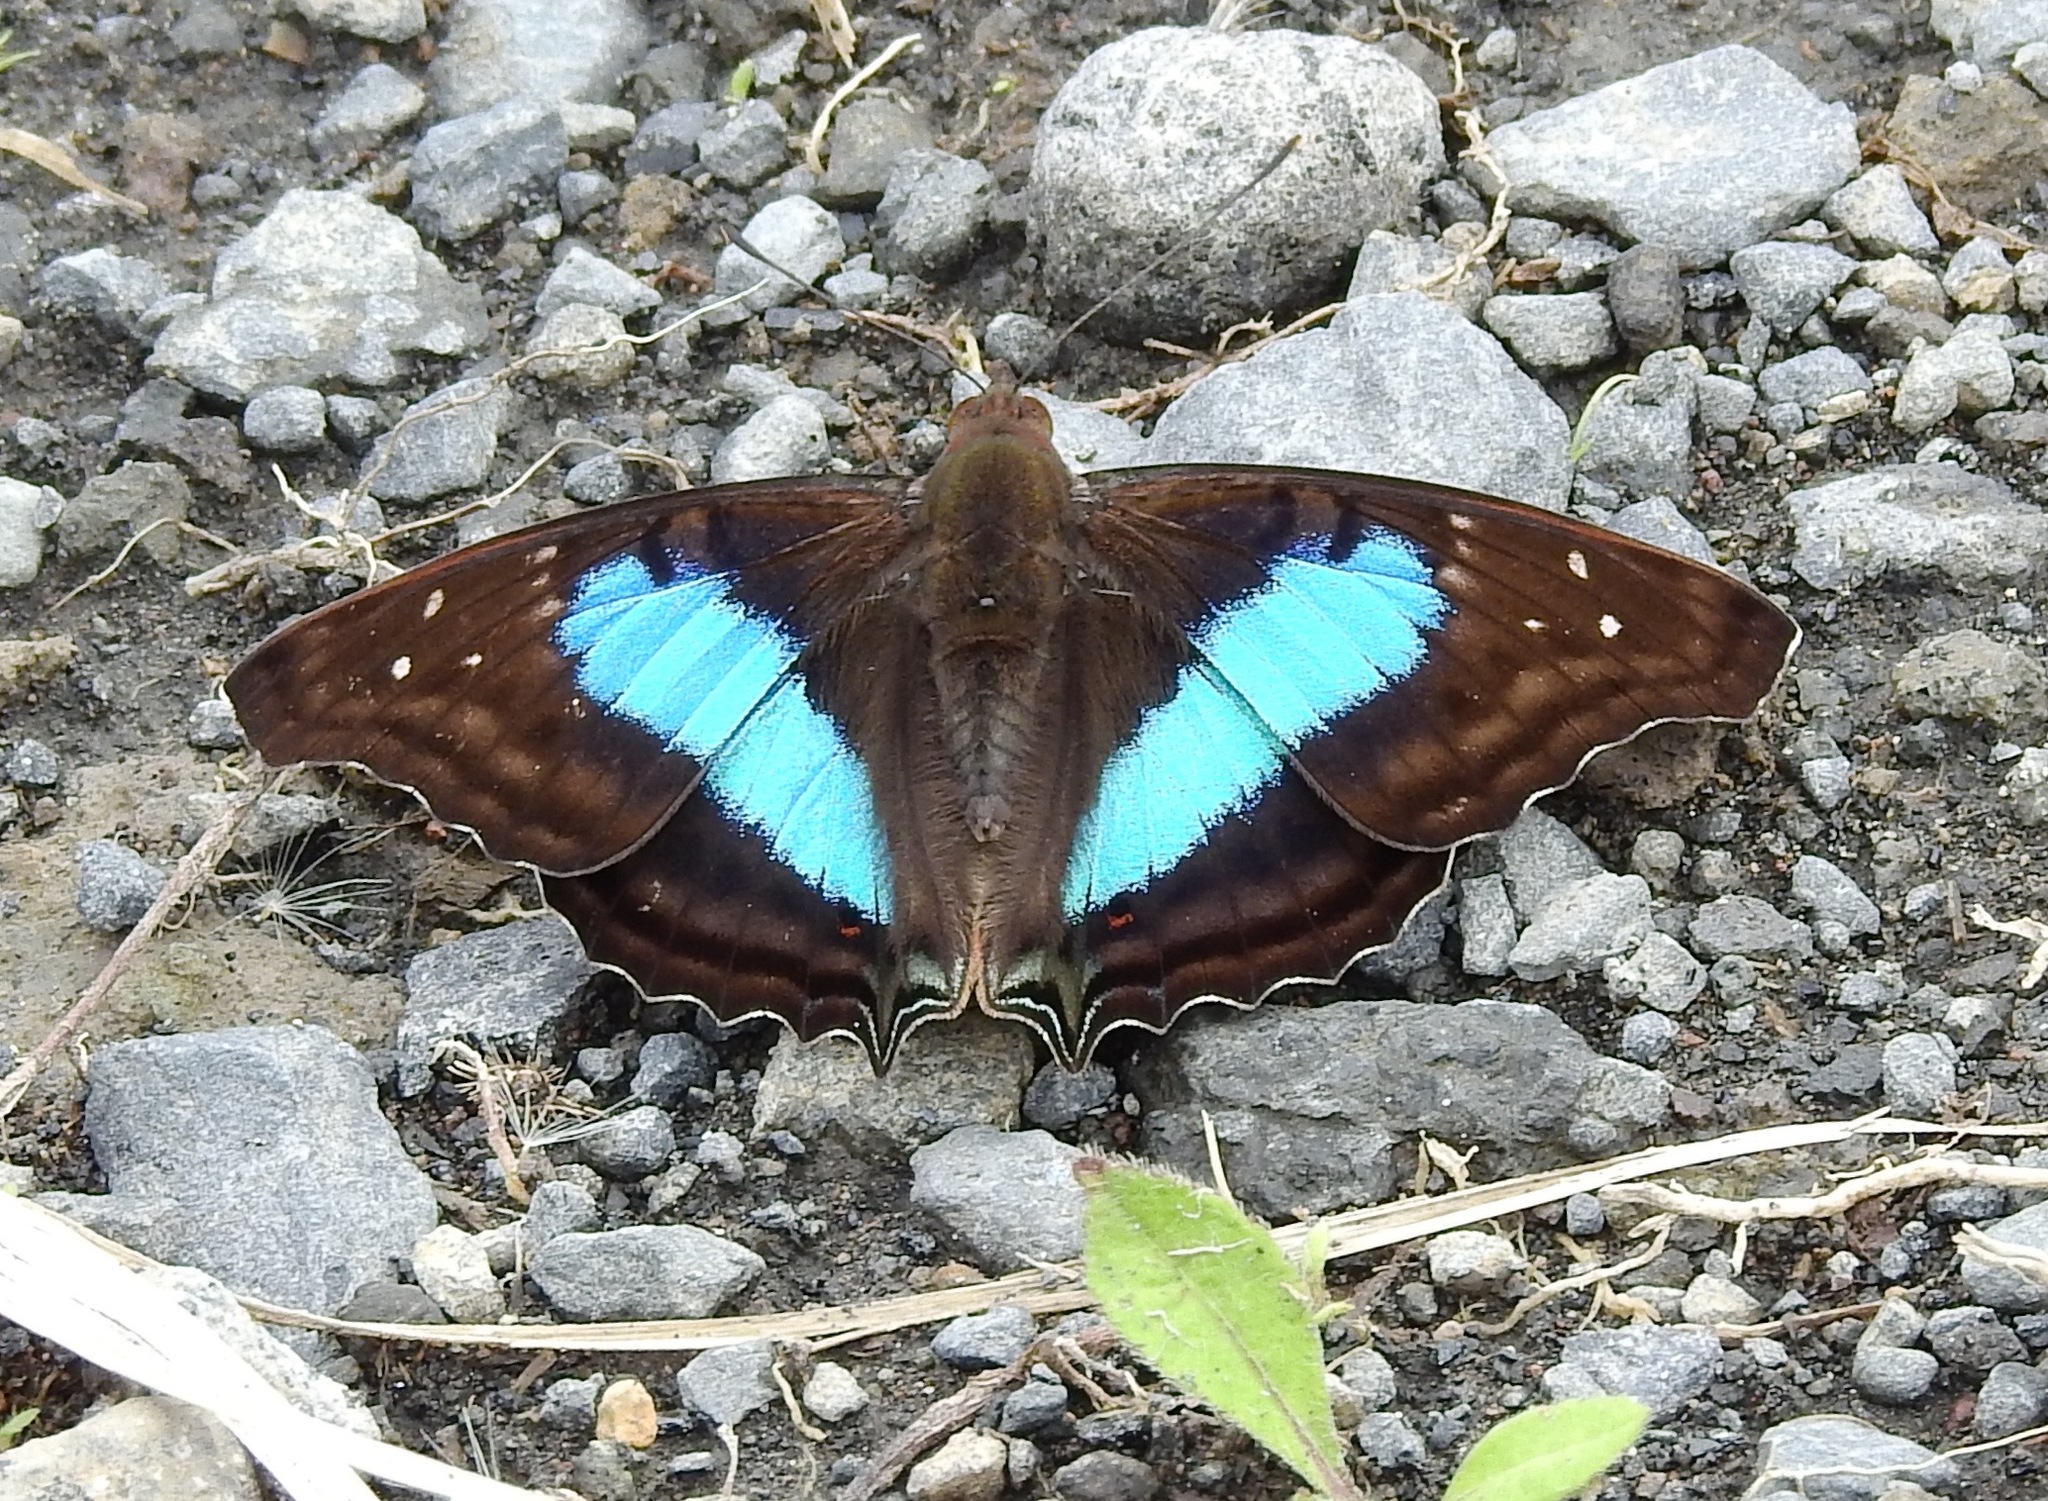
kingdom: Animalia
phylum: Arthropoda
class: Insecta
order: Lepidoptera
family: Nymphalidae
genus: Doxocopa
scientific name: Doxocopa laurentia
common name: Turquoise emperor
